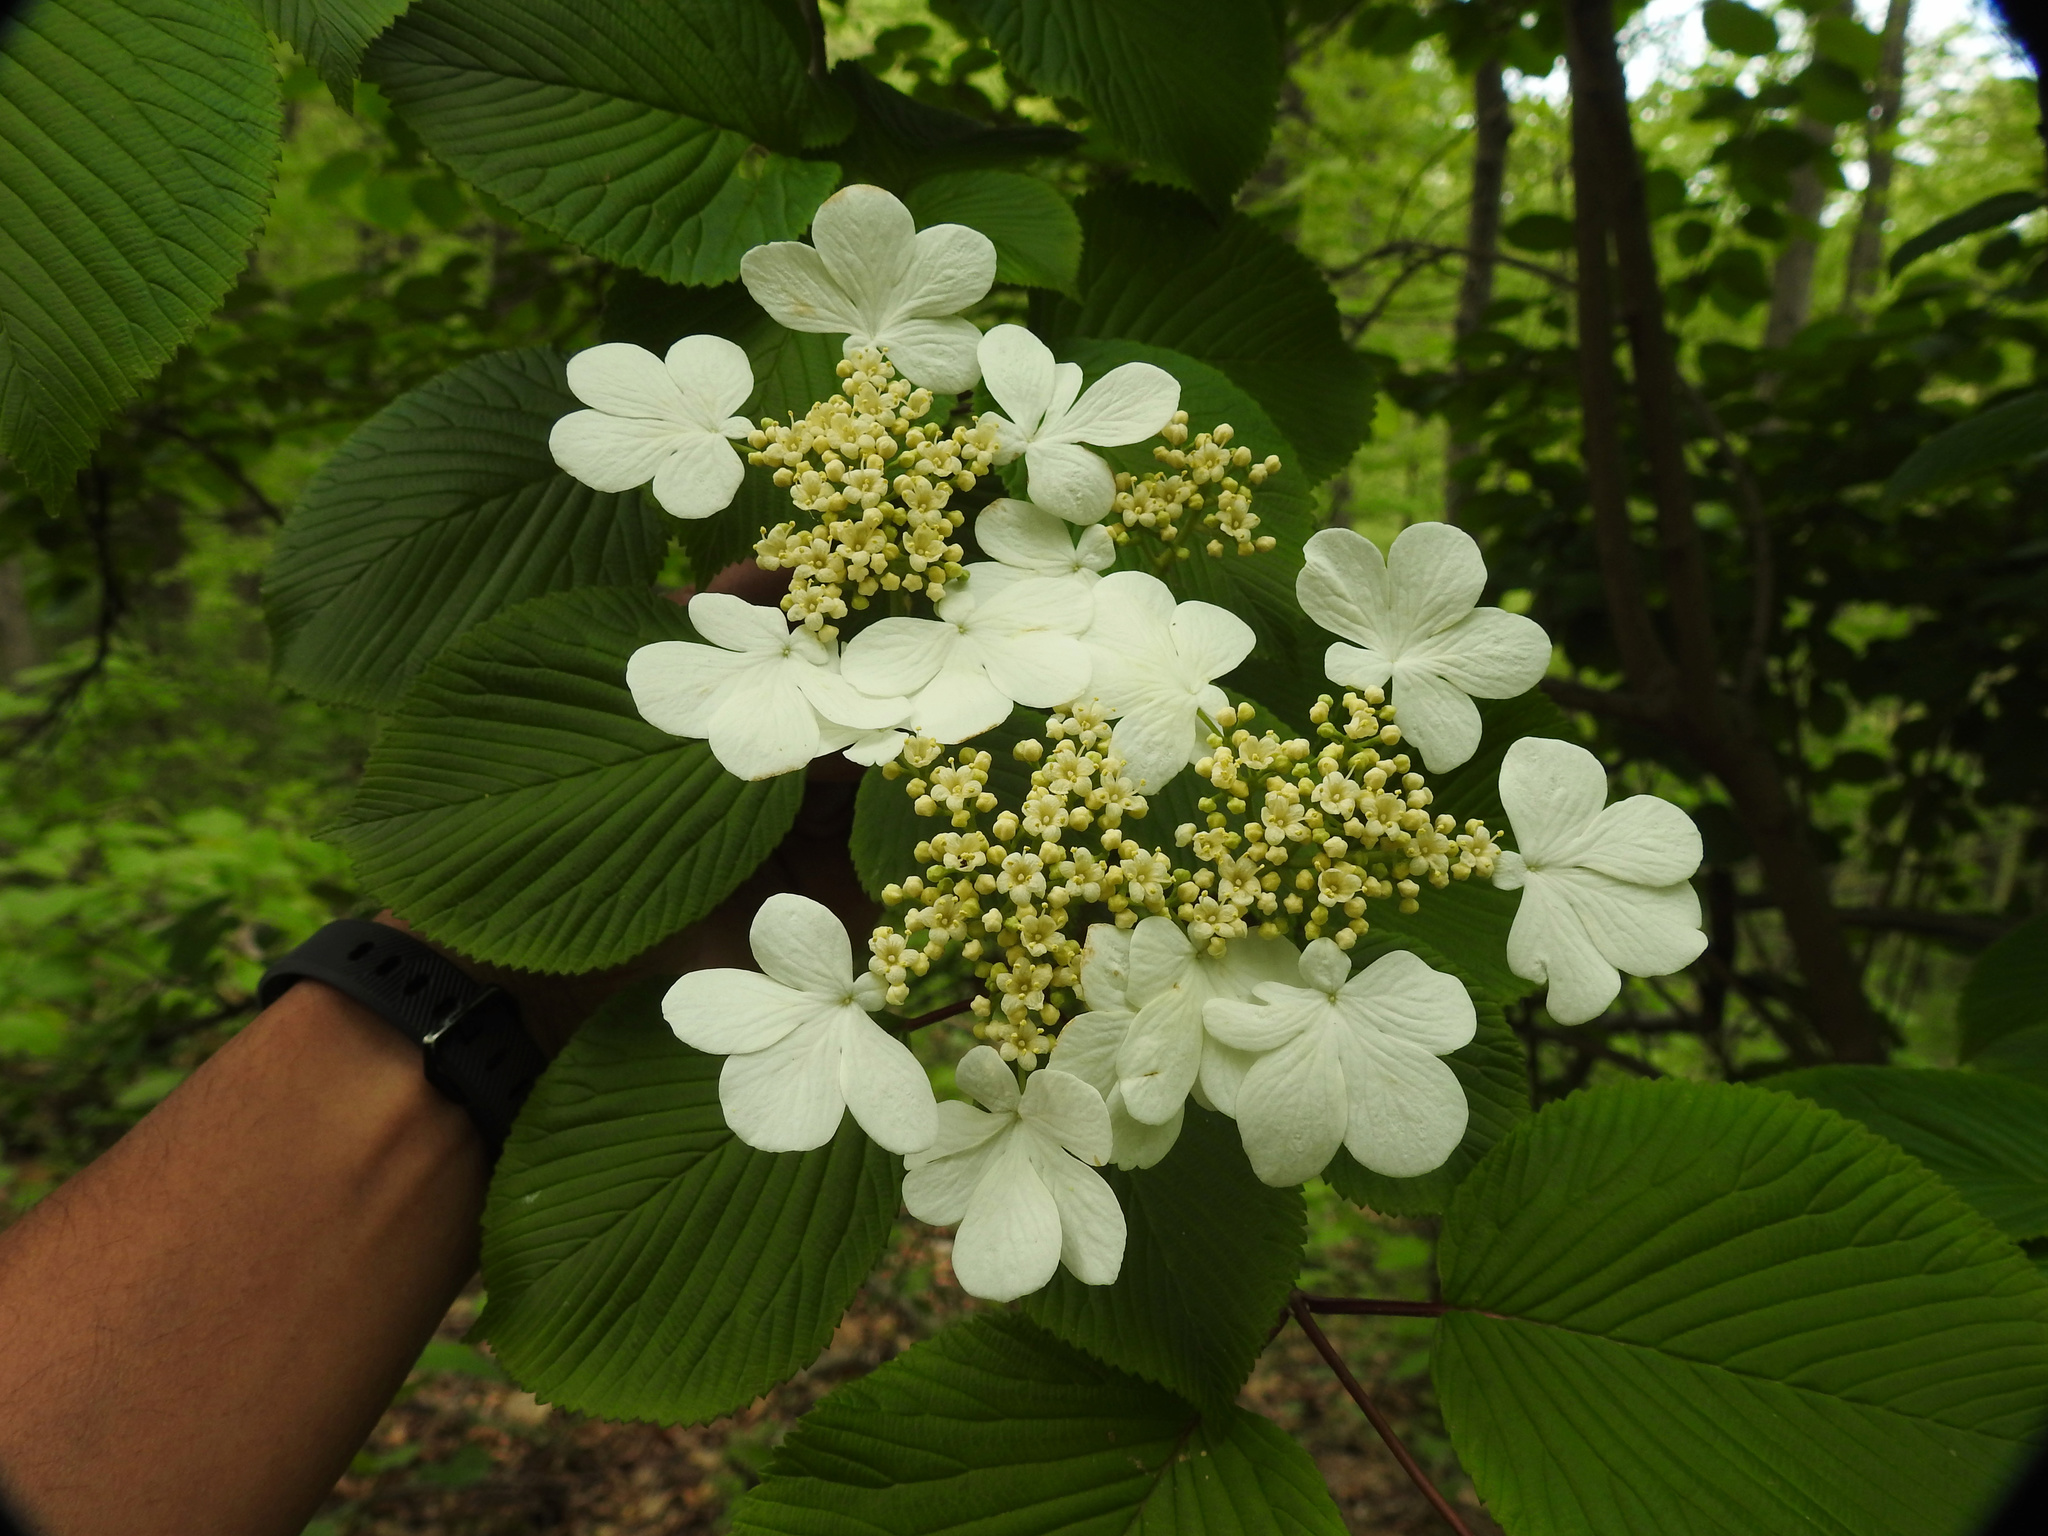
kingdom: Plantae
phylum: Tracheophyta
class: Magnoliopsida
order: Dipsacales
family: Viburnaceae
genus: Viburnum
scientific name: Viburnum plicatum
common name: Japanese snowball
